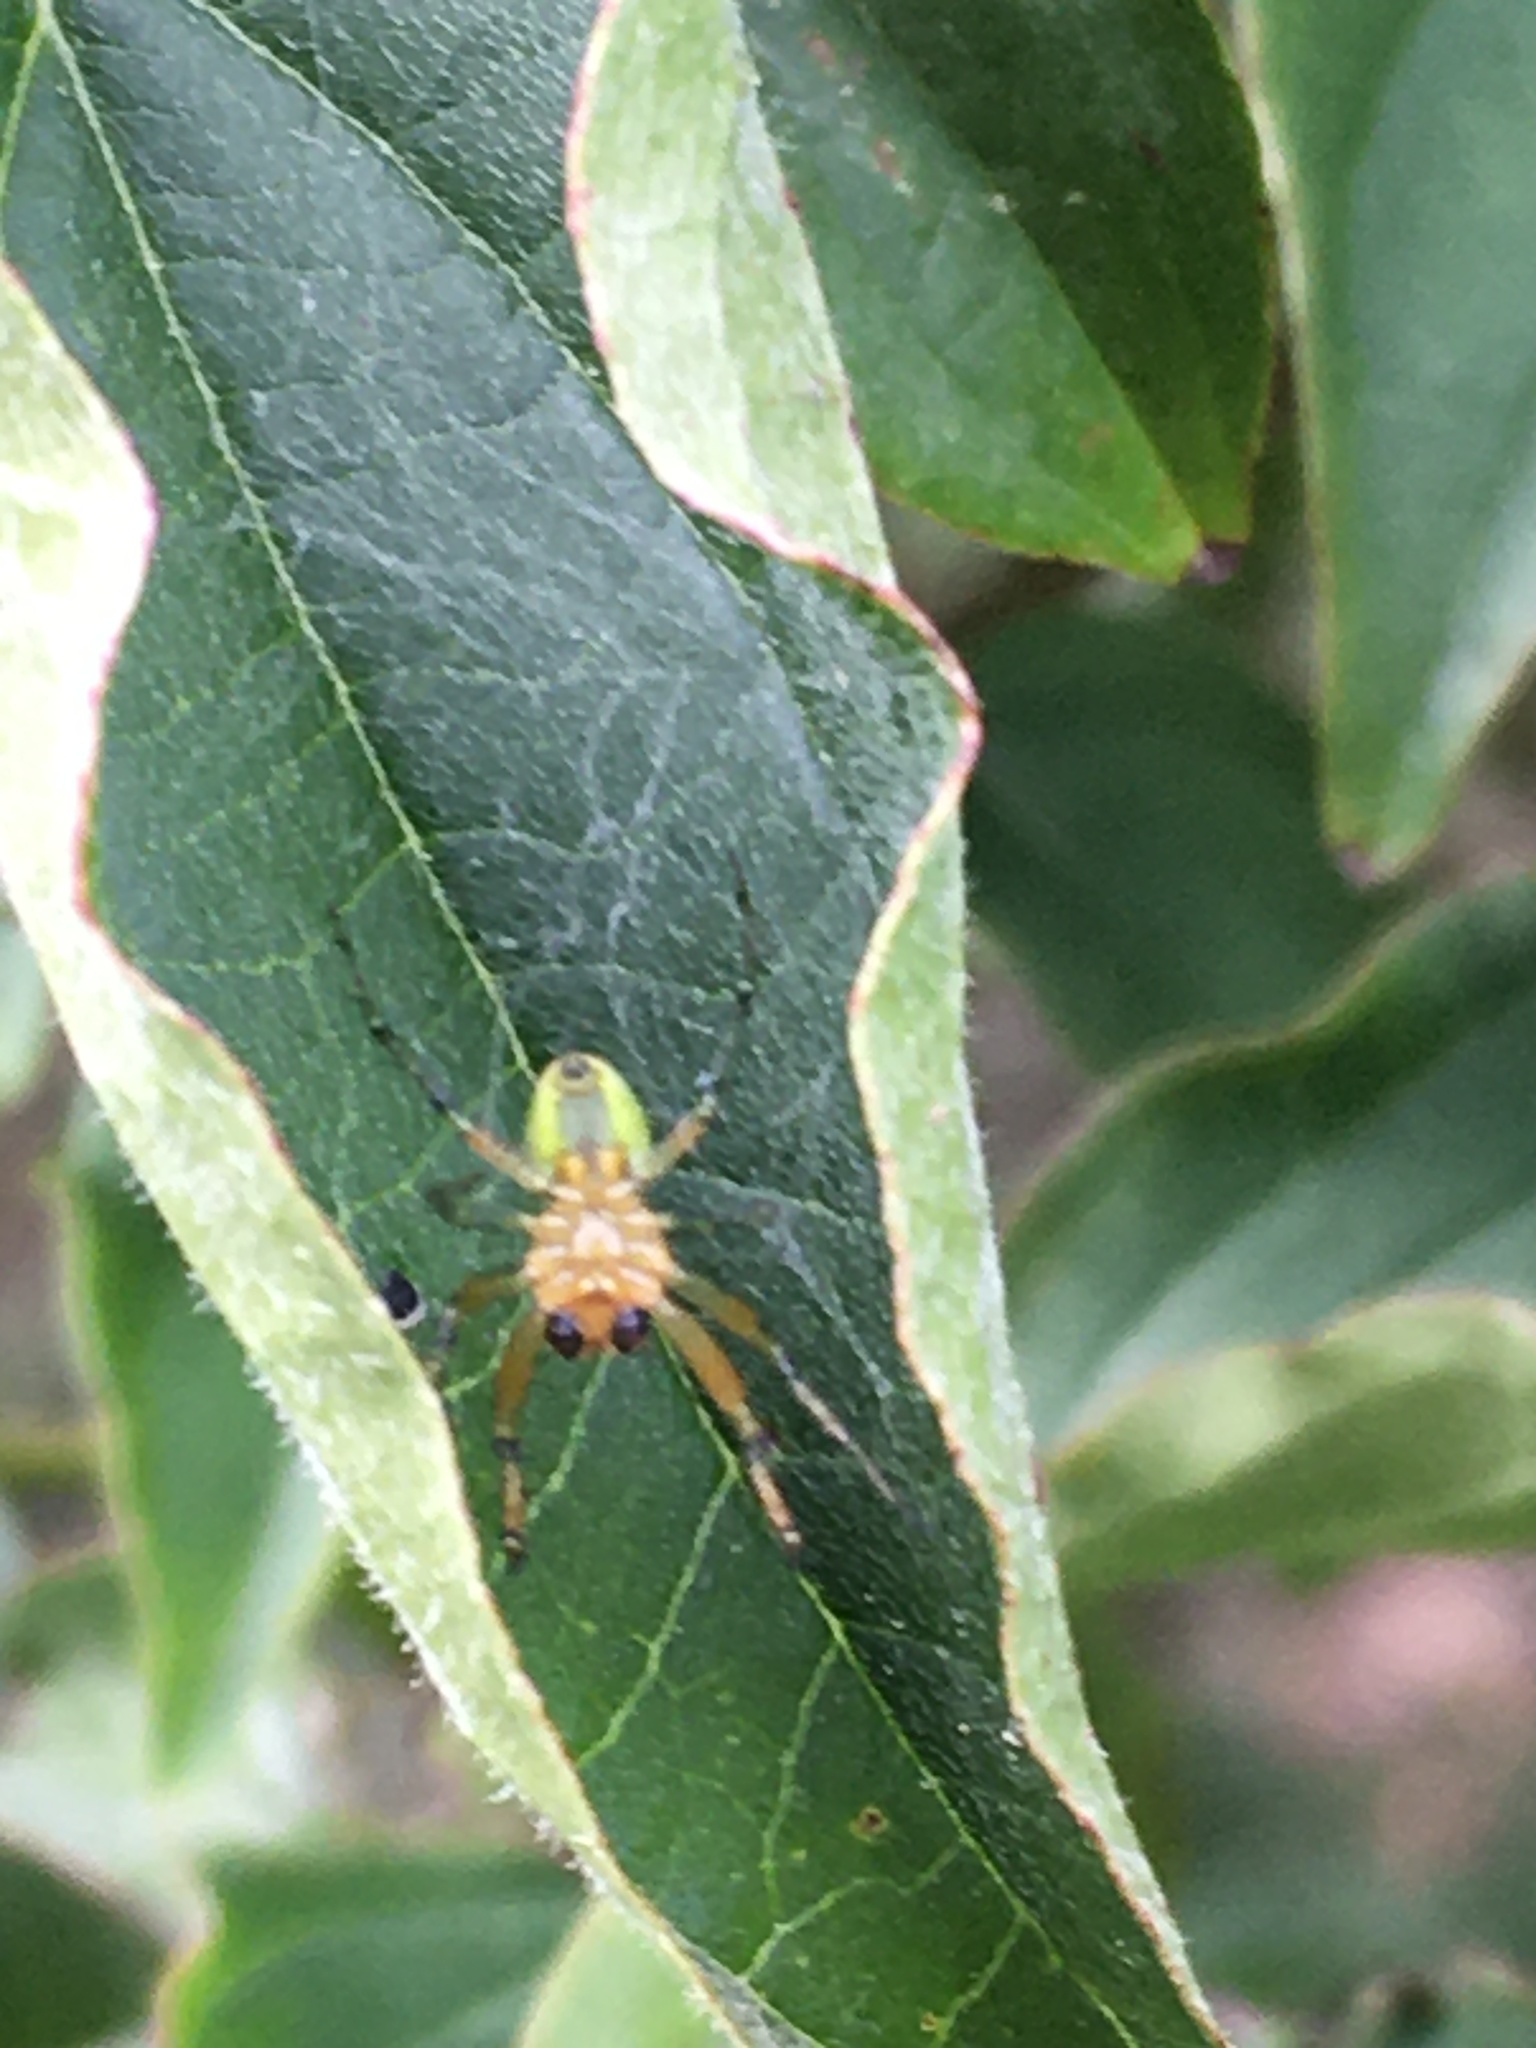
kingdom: Animalia
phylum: Arthropoda
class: Arachnida
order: Araneae
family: Araneidae
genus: Araniella
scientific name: Araniella
